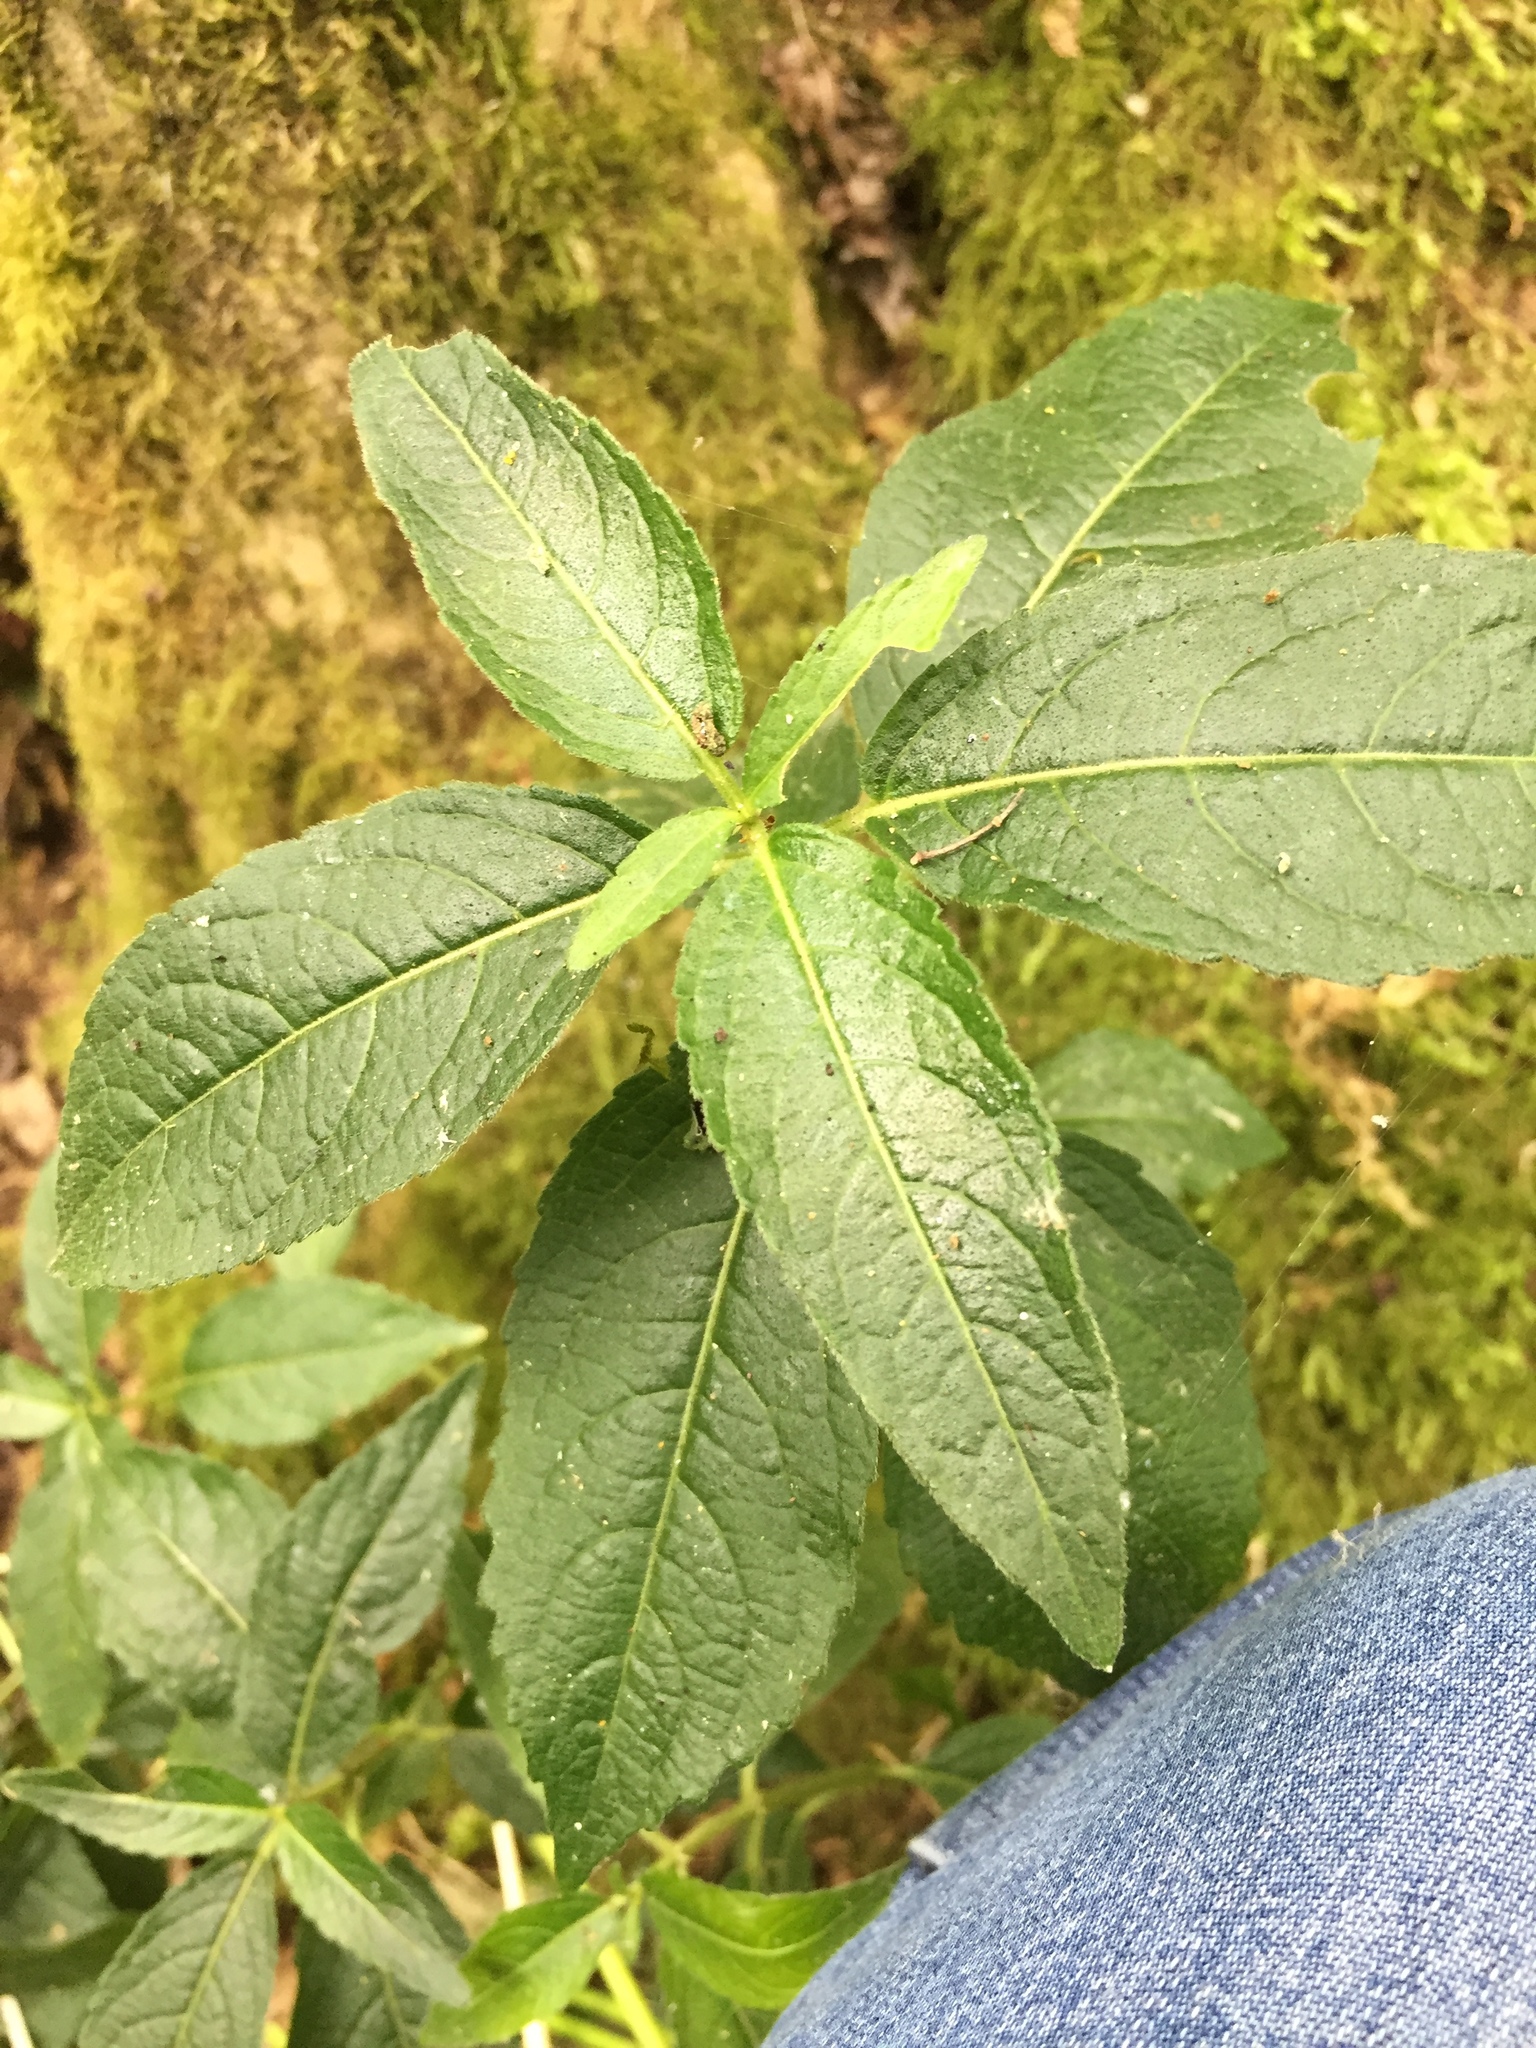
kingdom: Plantae
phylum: Tracheophyta
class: Magnoliopsida
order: Malpighiales
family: Euphorbiaceae
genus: Mercurialis
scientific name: Mercurialis perennis
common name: Dog mercury
